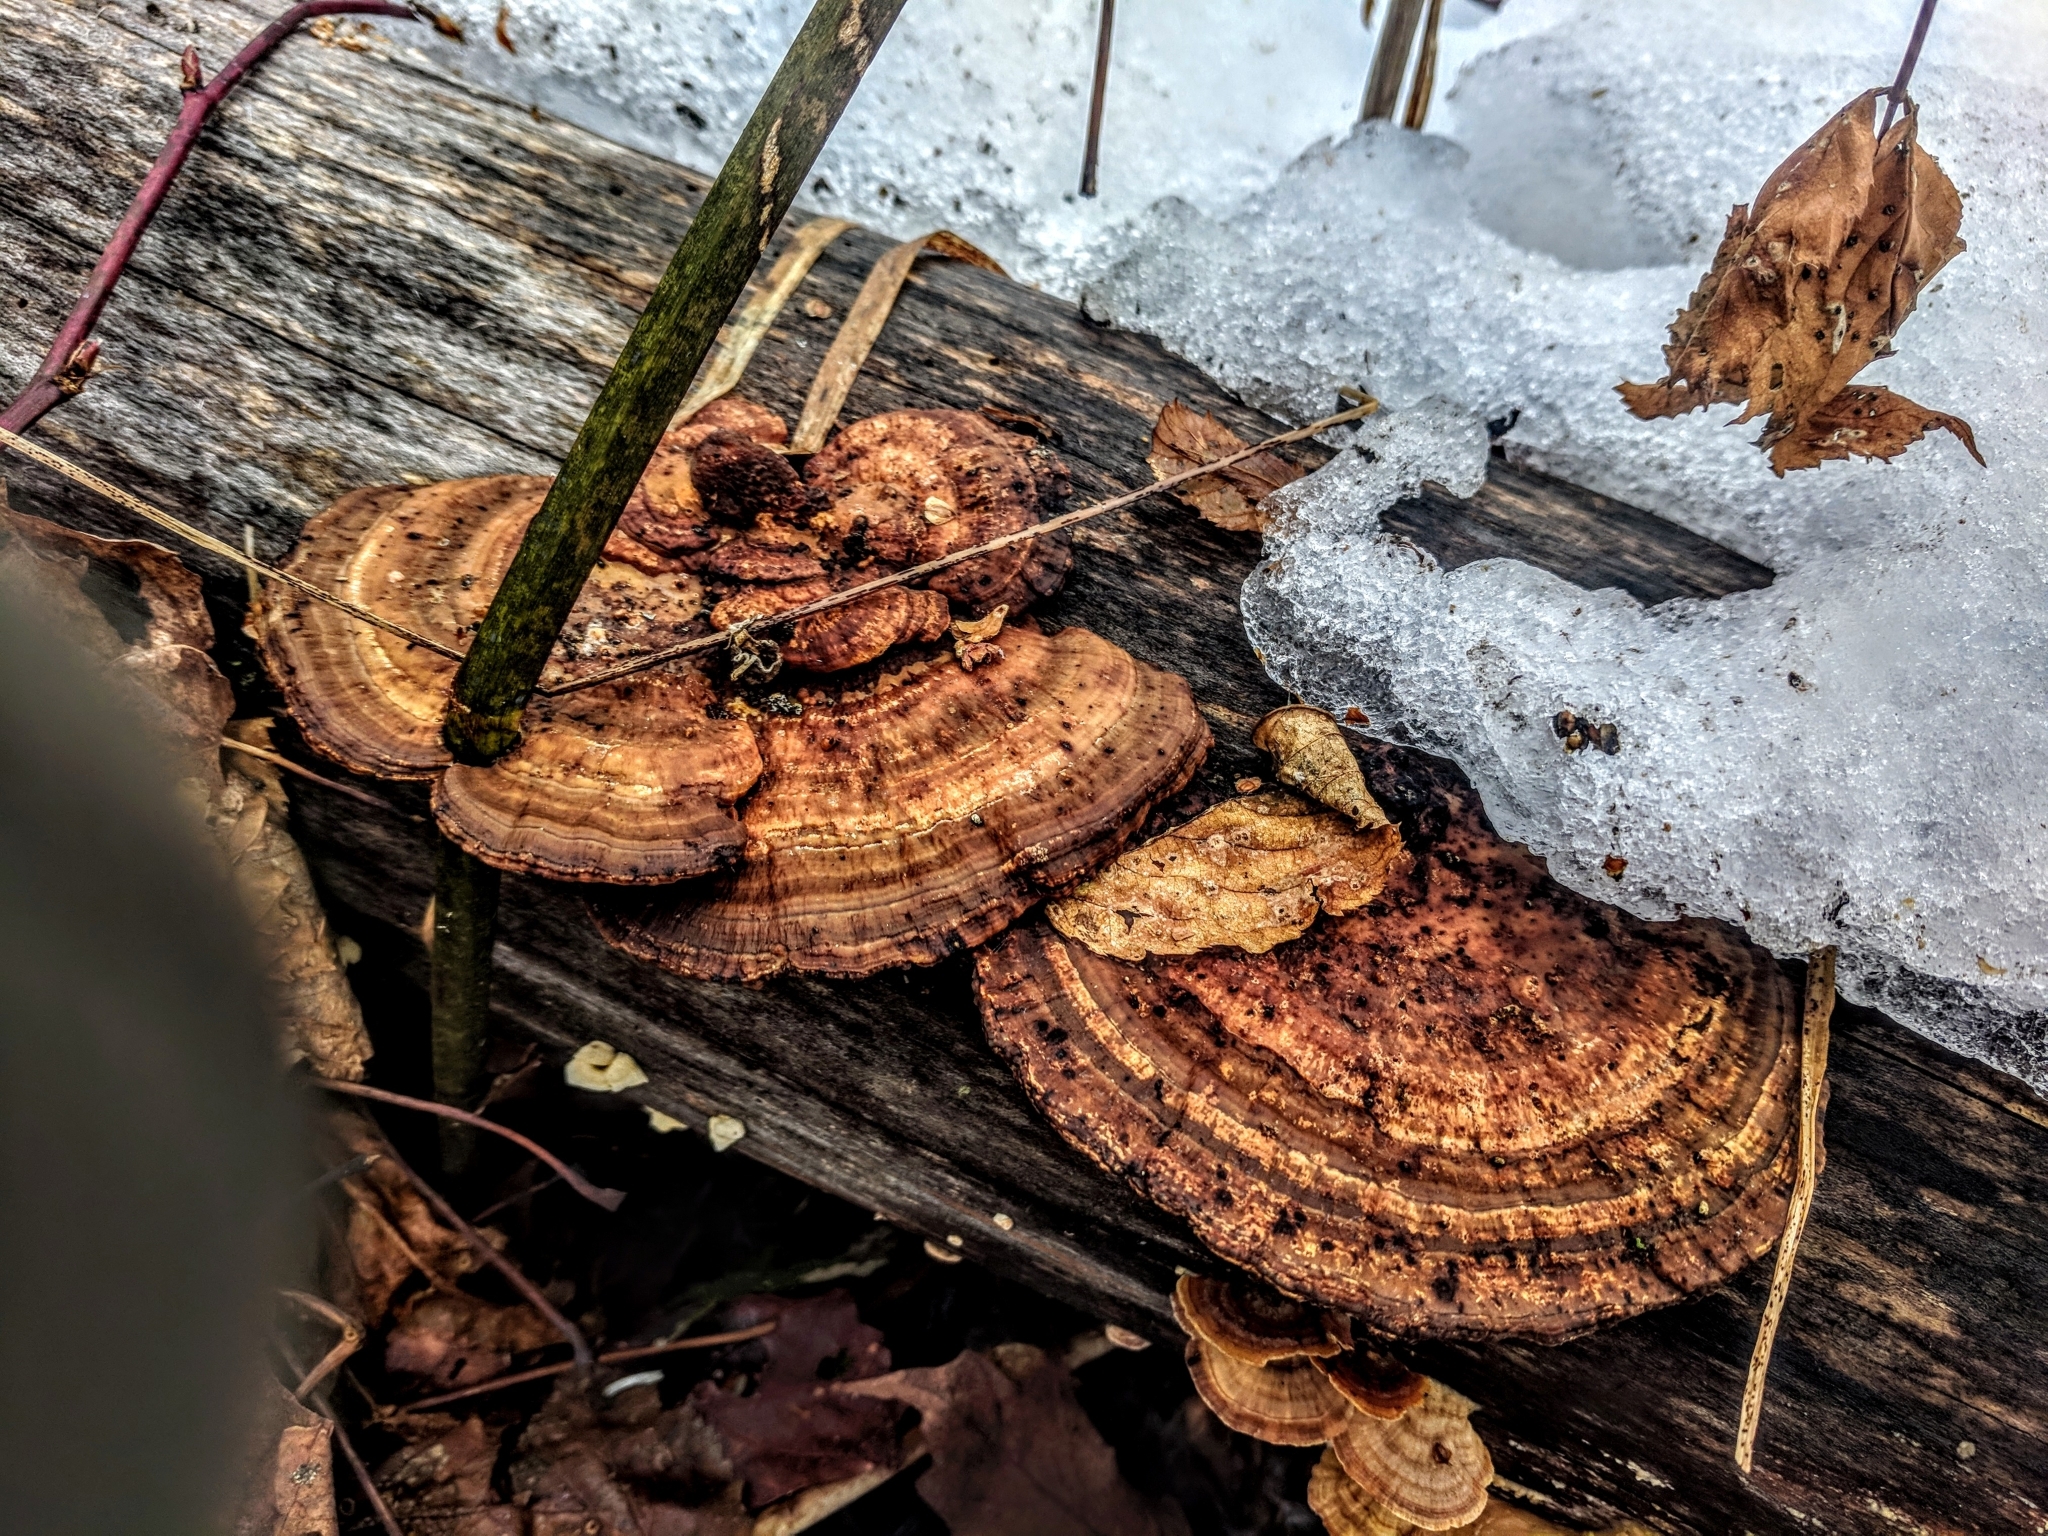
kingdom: Fungi
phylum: Basidiomycota
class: Agaricomycetes
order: Polyporales
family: Polyporaceae
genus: Daedaleopsis
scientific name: Daedaleopsis confragosa
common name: Blushing bracket
